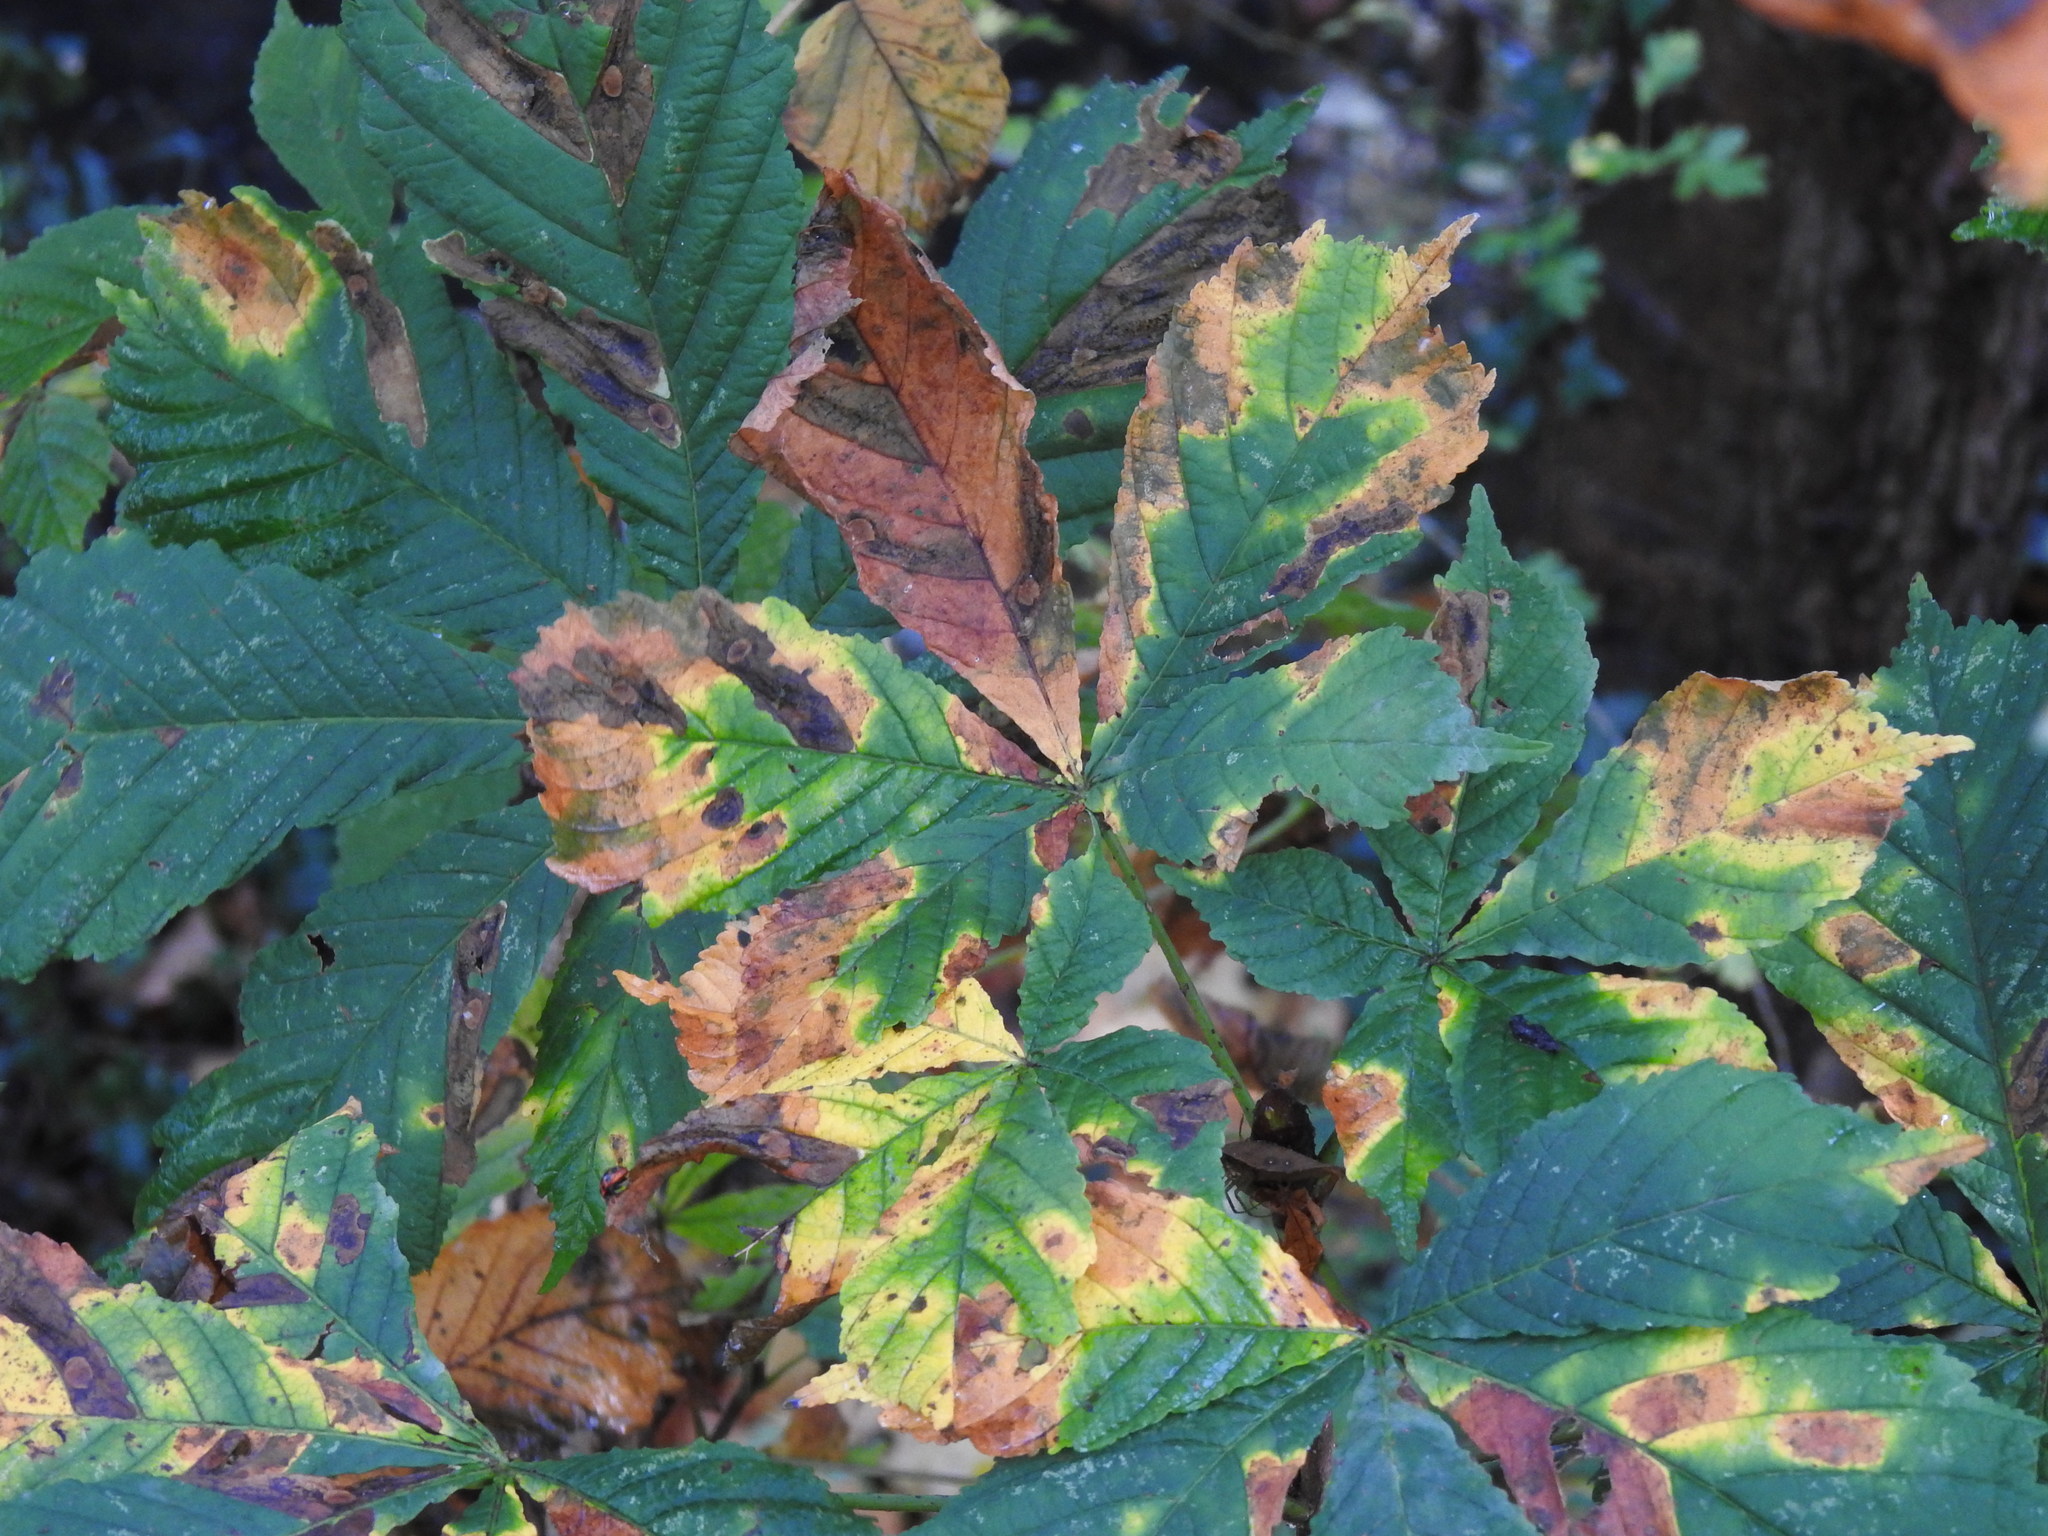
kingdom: Plantae
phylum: Tracheophyta
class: Magnoliopsida
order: Sapindales
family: Sapindaceae
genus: Aesculus
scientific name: Aesculus hippocastanum
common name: Horse-chestnut
